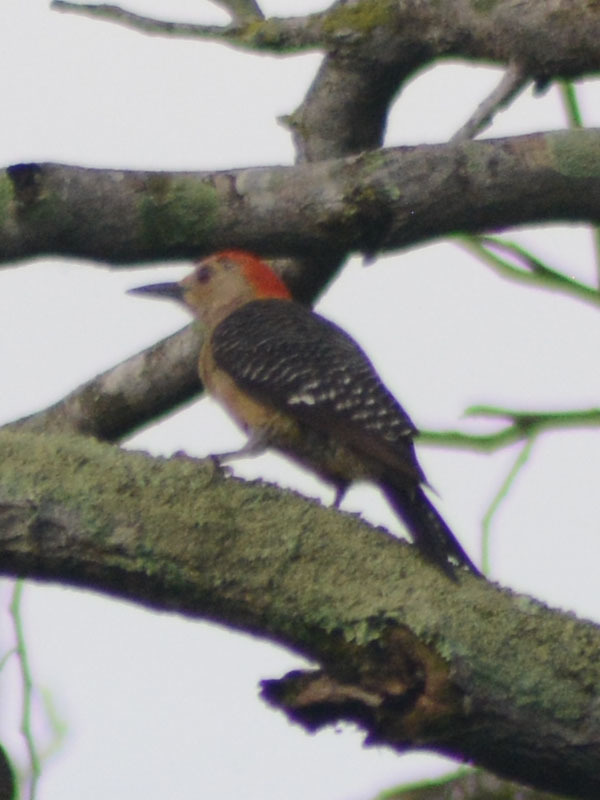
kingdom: Animalia
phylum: Chordata
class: Aves
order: Piciformes
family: Picidae
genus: Melanerpes
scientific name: Melanerpes aurifrons
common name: Golden-fronted woodpecker
